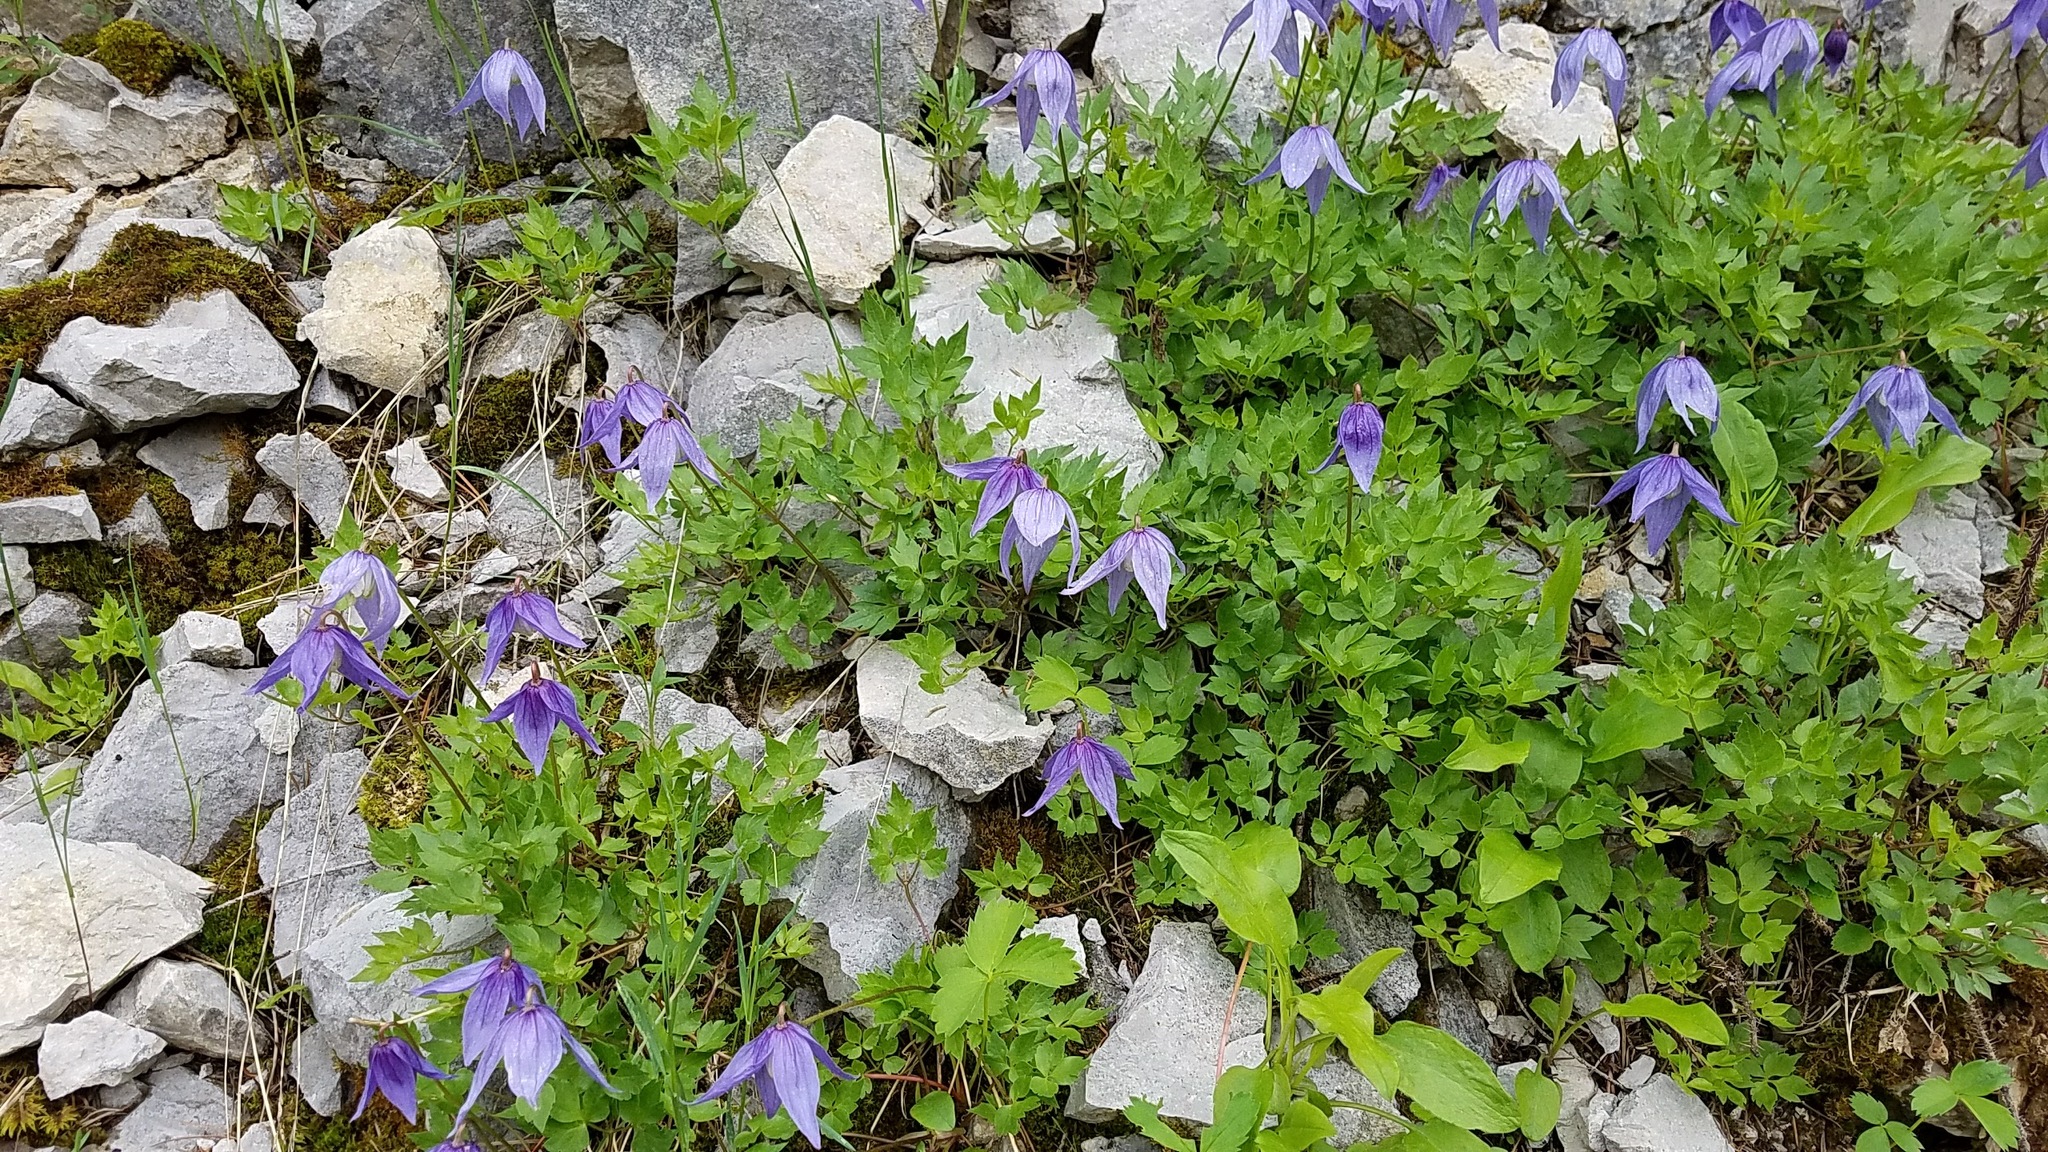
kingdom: Plantae
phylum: Tracheophyta
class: Magnoliopsida
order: Ranunculales
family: Ranunculaceae
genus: Clematis
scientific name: Clematis columbiana
